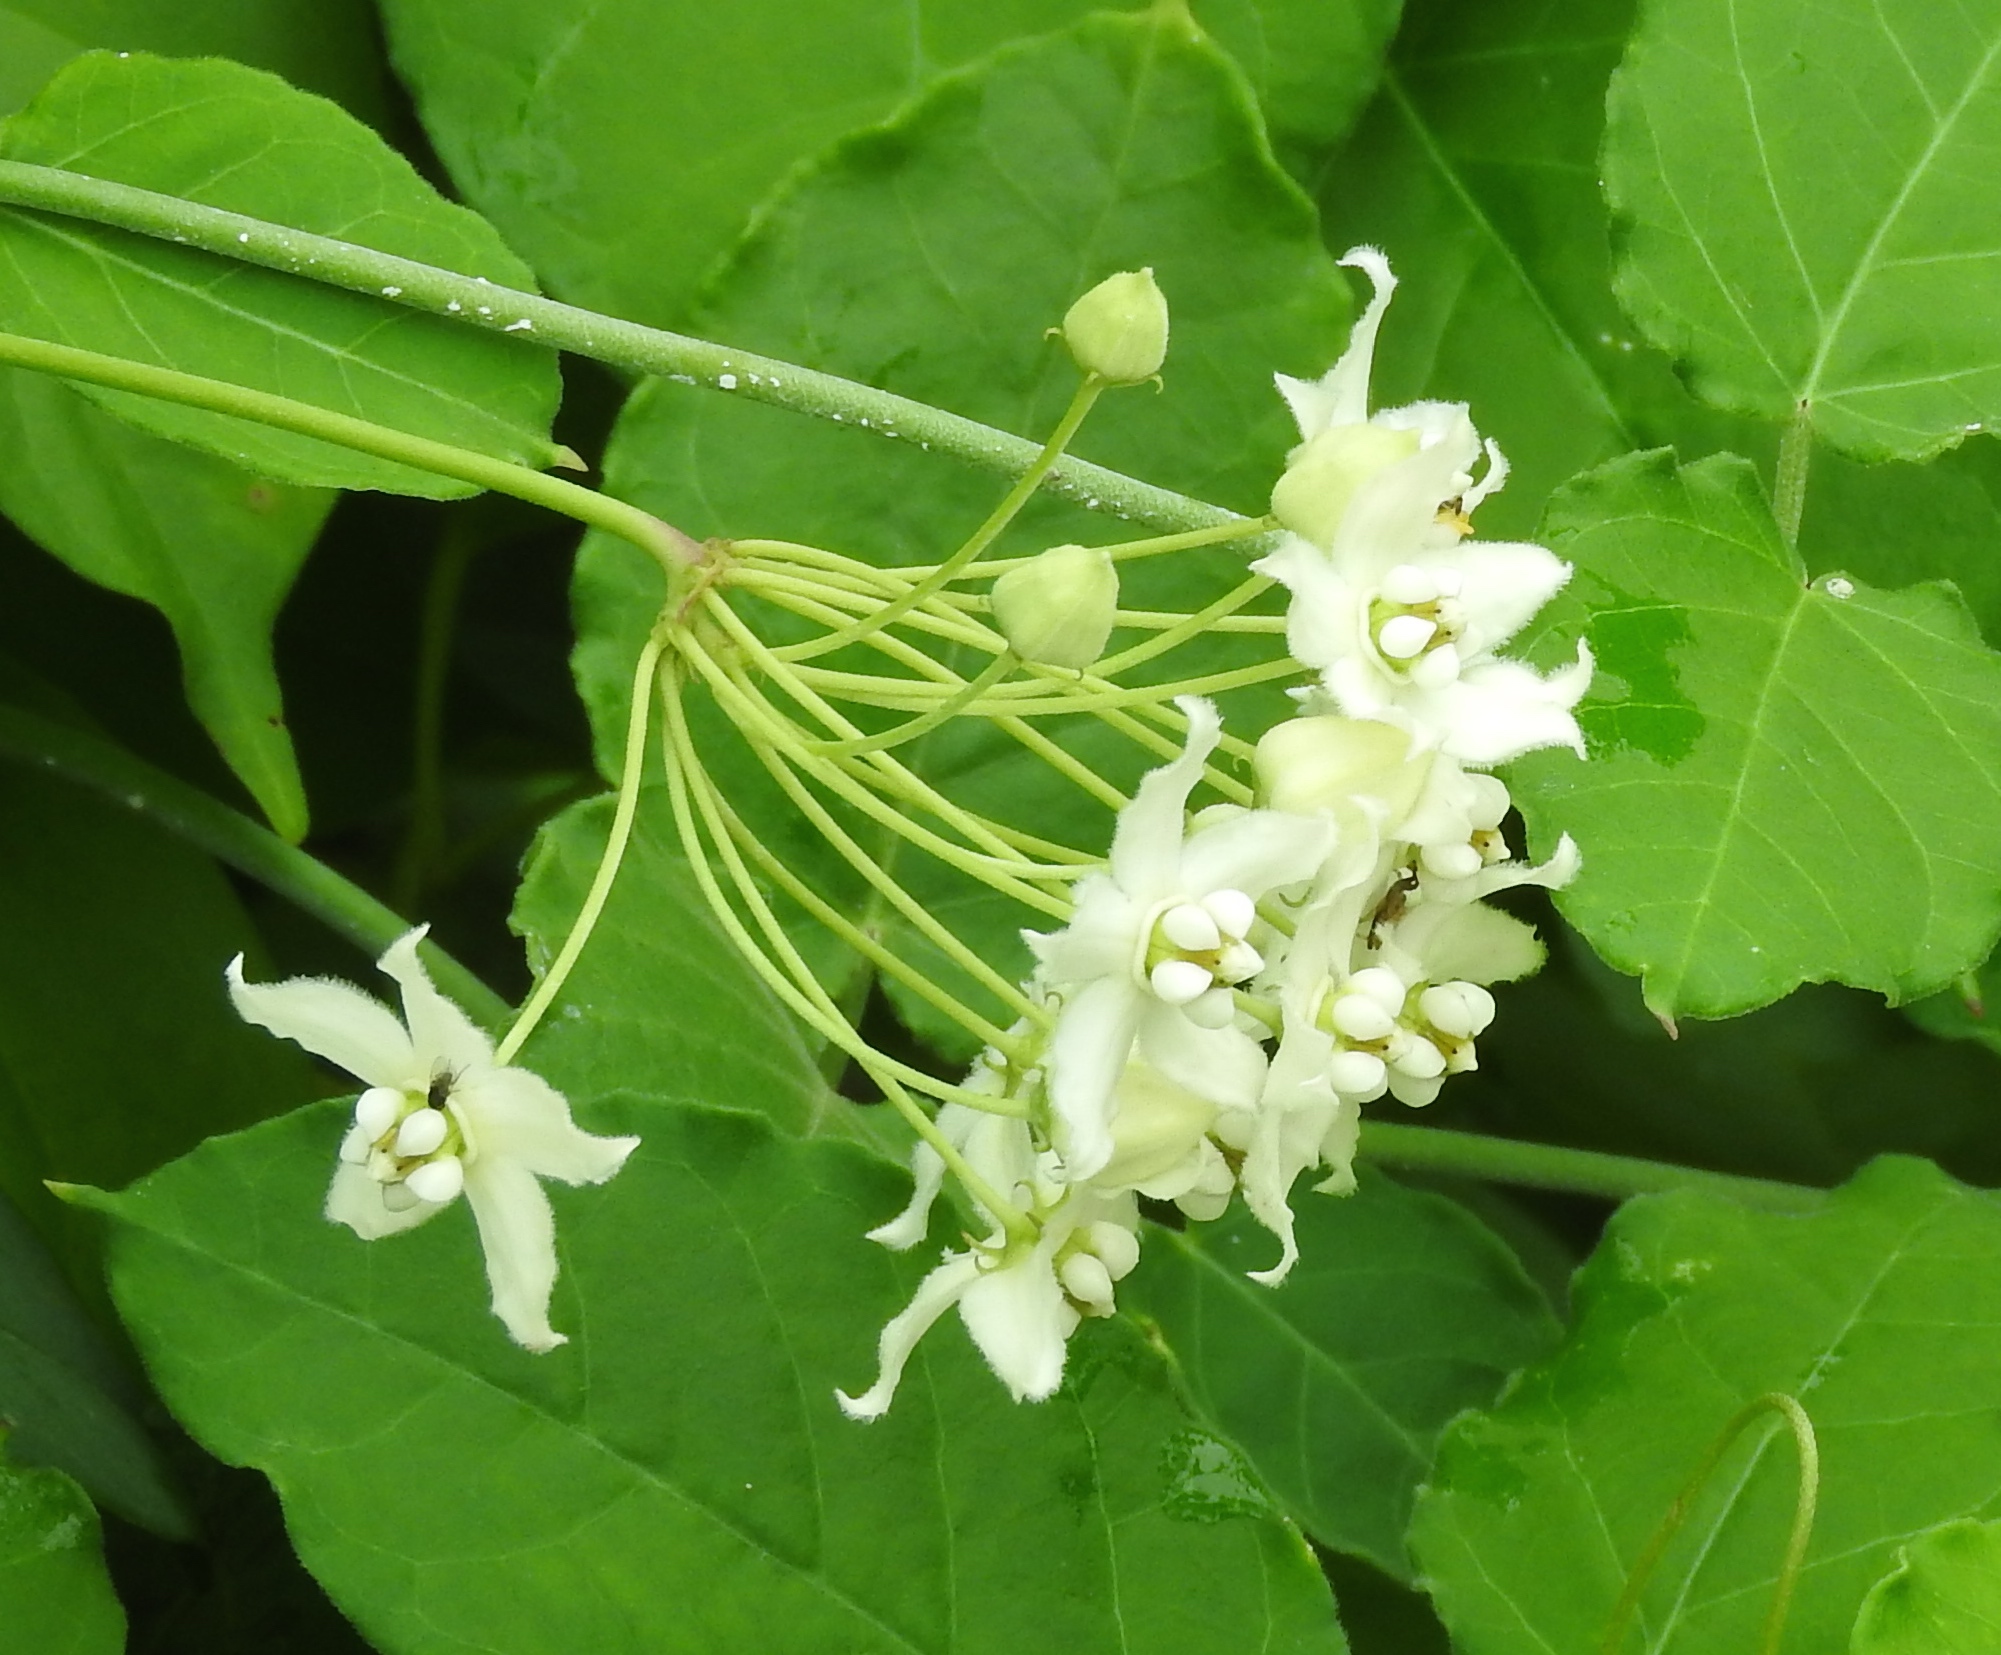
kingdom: Plantae
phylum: Tracheophyta
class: Magnoliopsida
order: Gentianales
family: Apocynaceae
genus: Funastrum
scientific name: Funastrum pannosum
